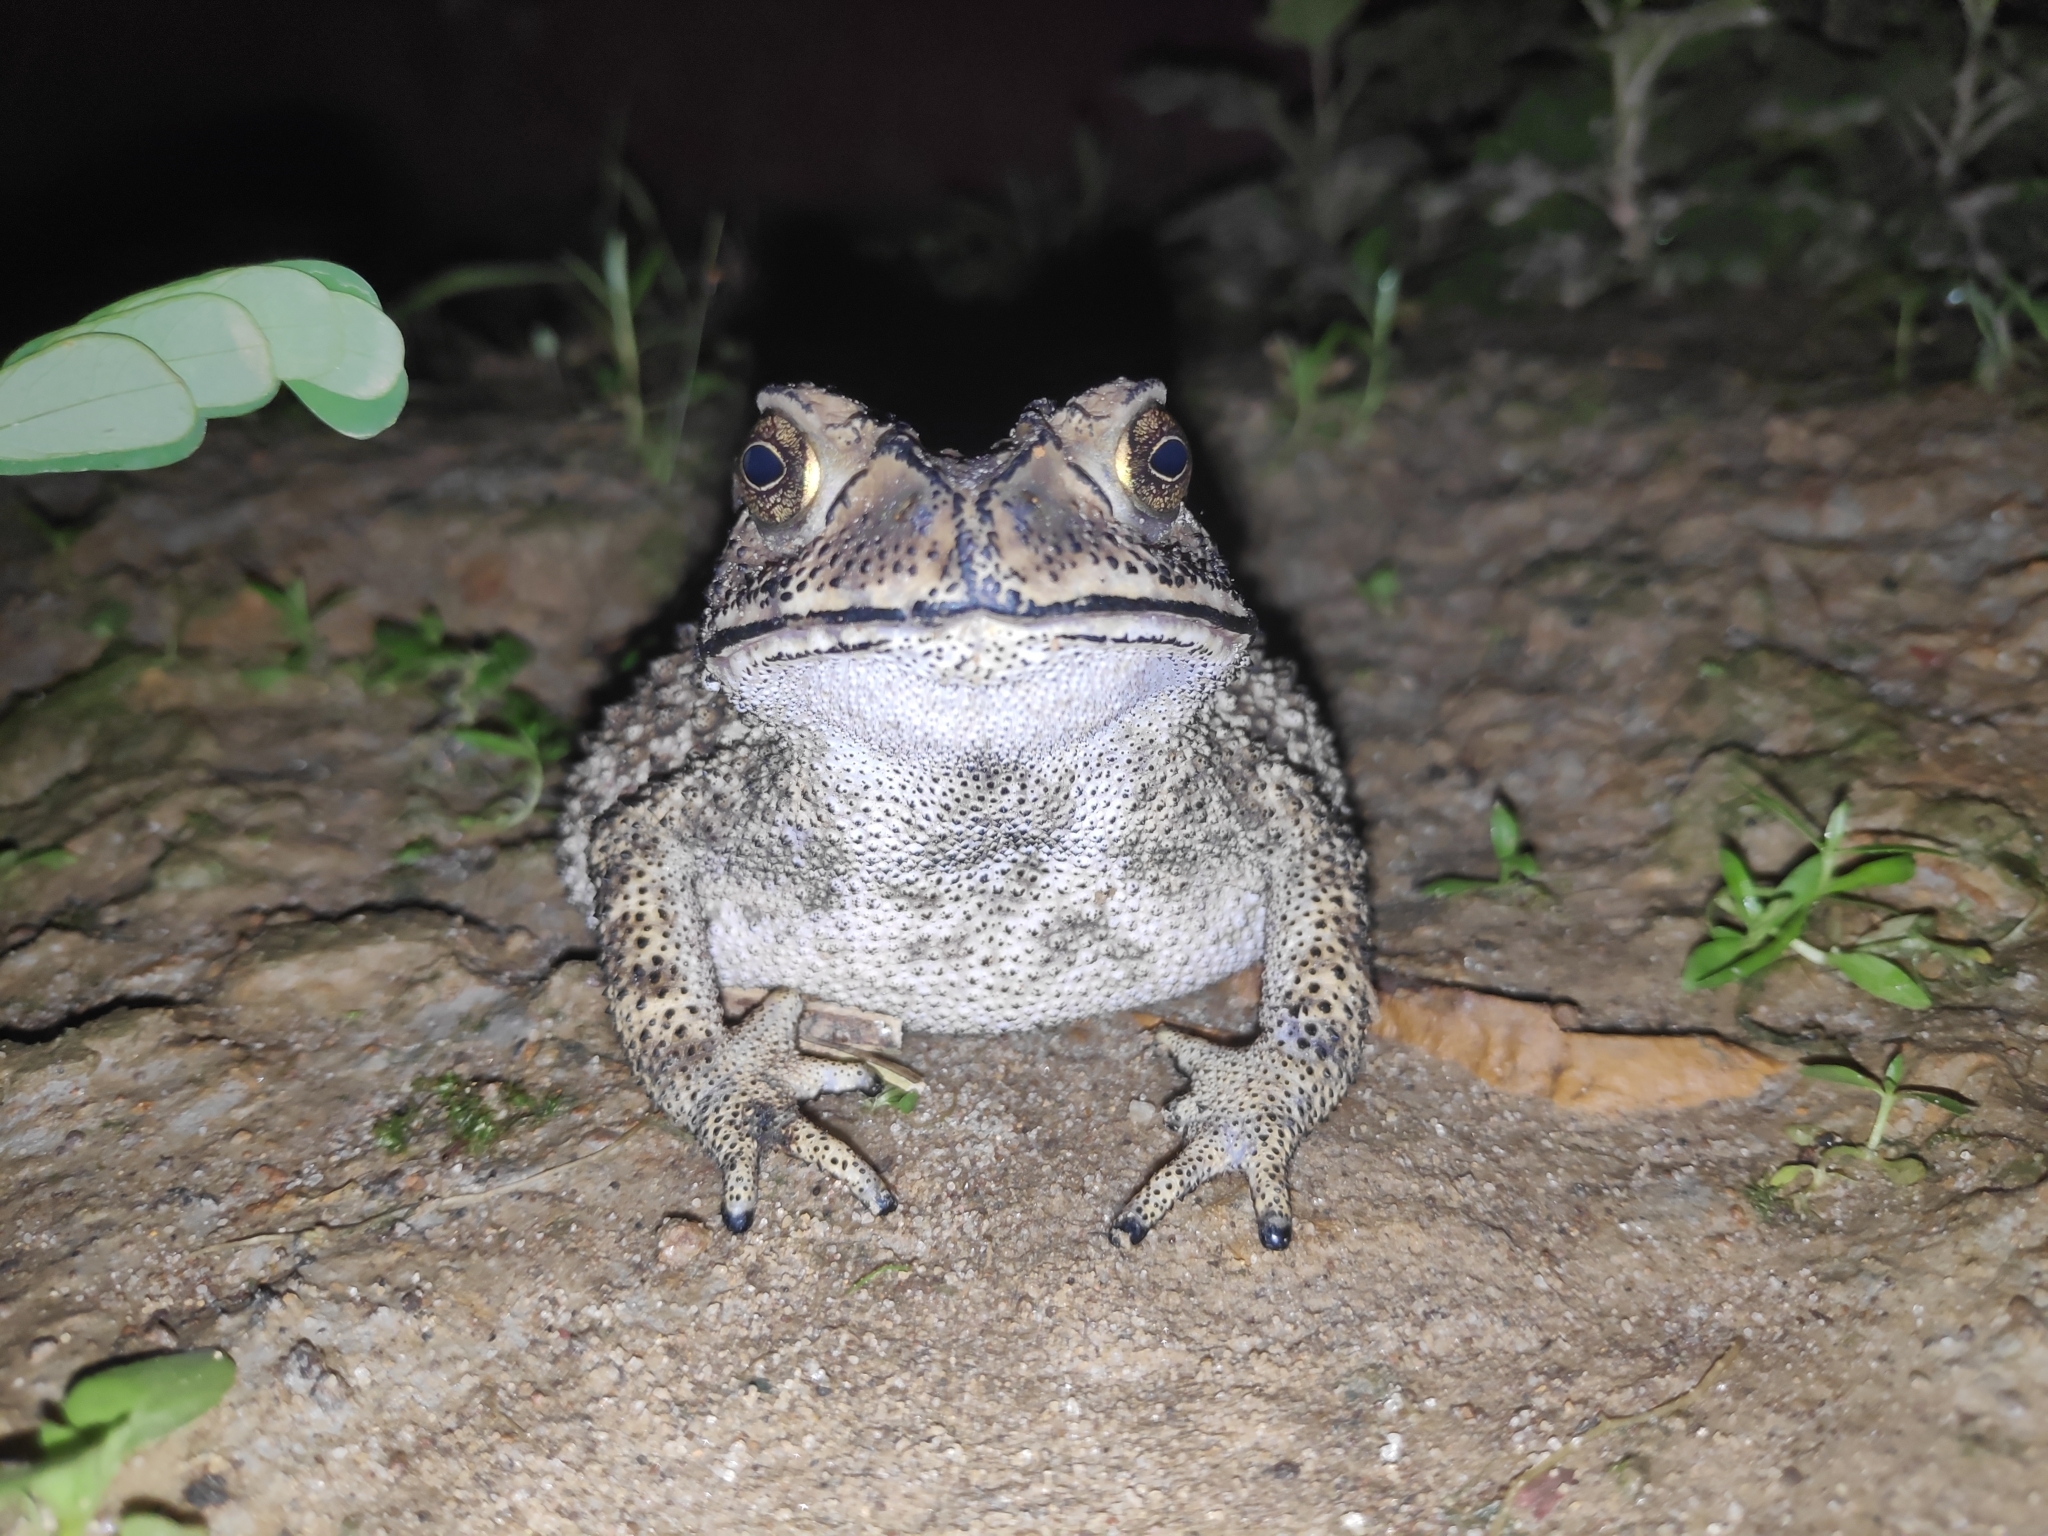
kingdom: Animalia
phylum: Chordata
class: Amphibia
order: Anura
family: Bufonidae
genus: Duttaphrynus
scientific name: Duttaphrynus melanostictus
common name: Common sunda toad
